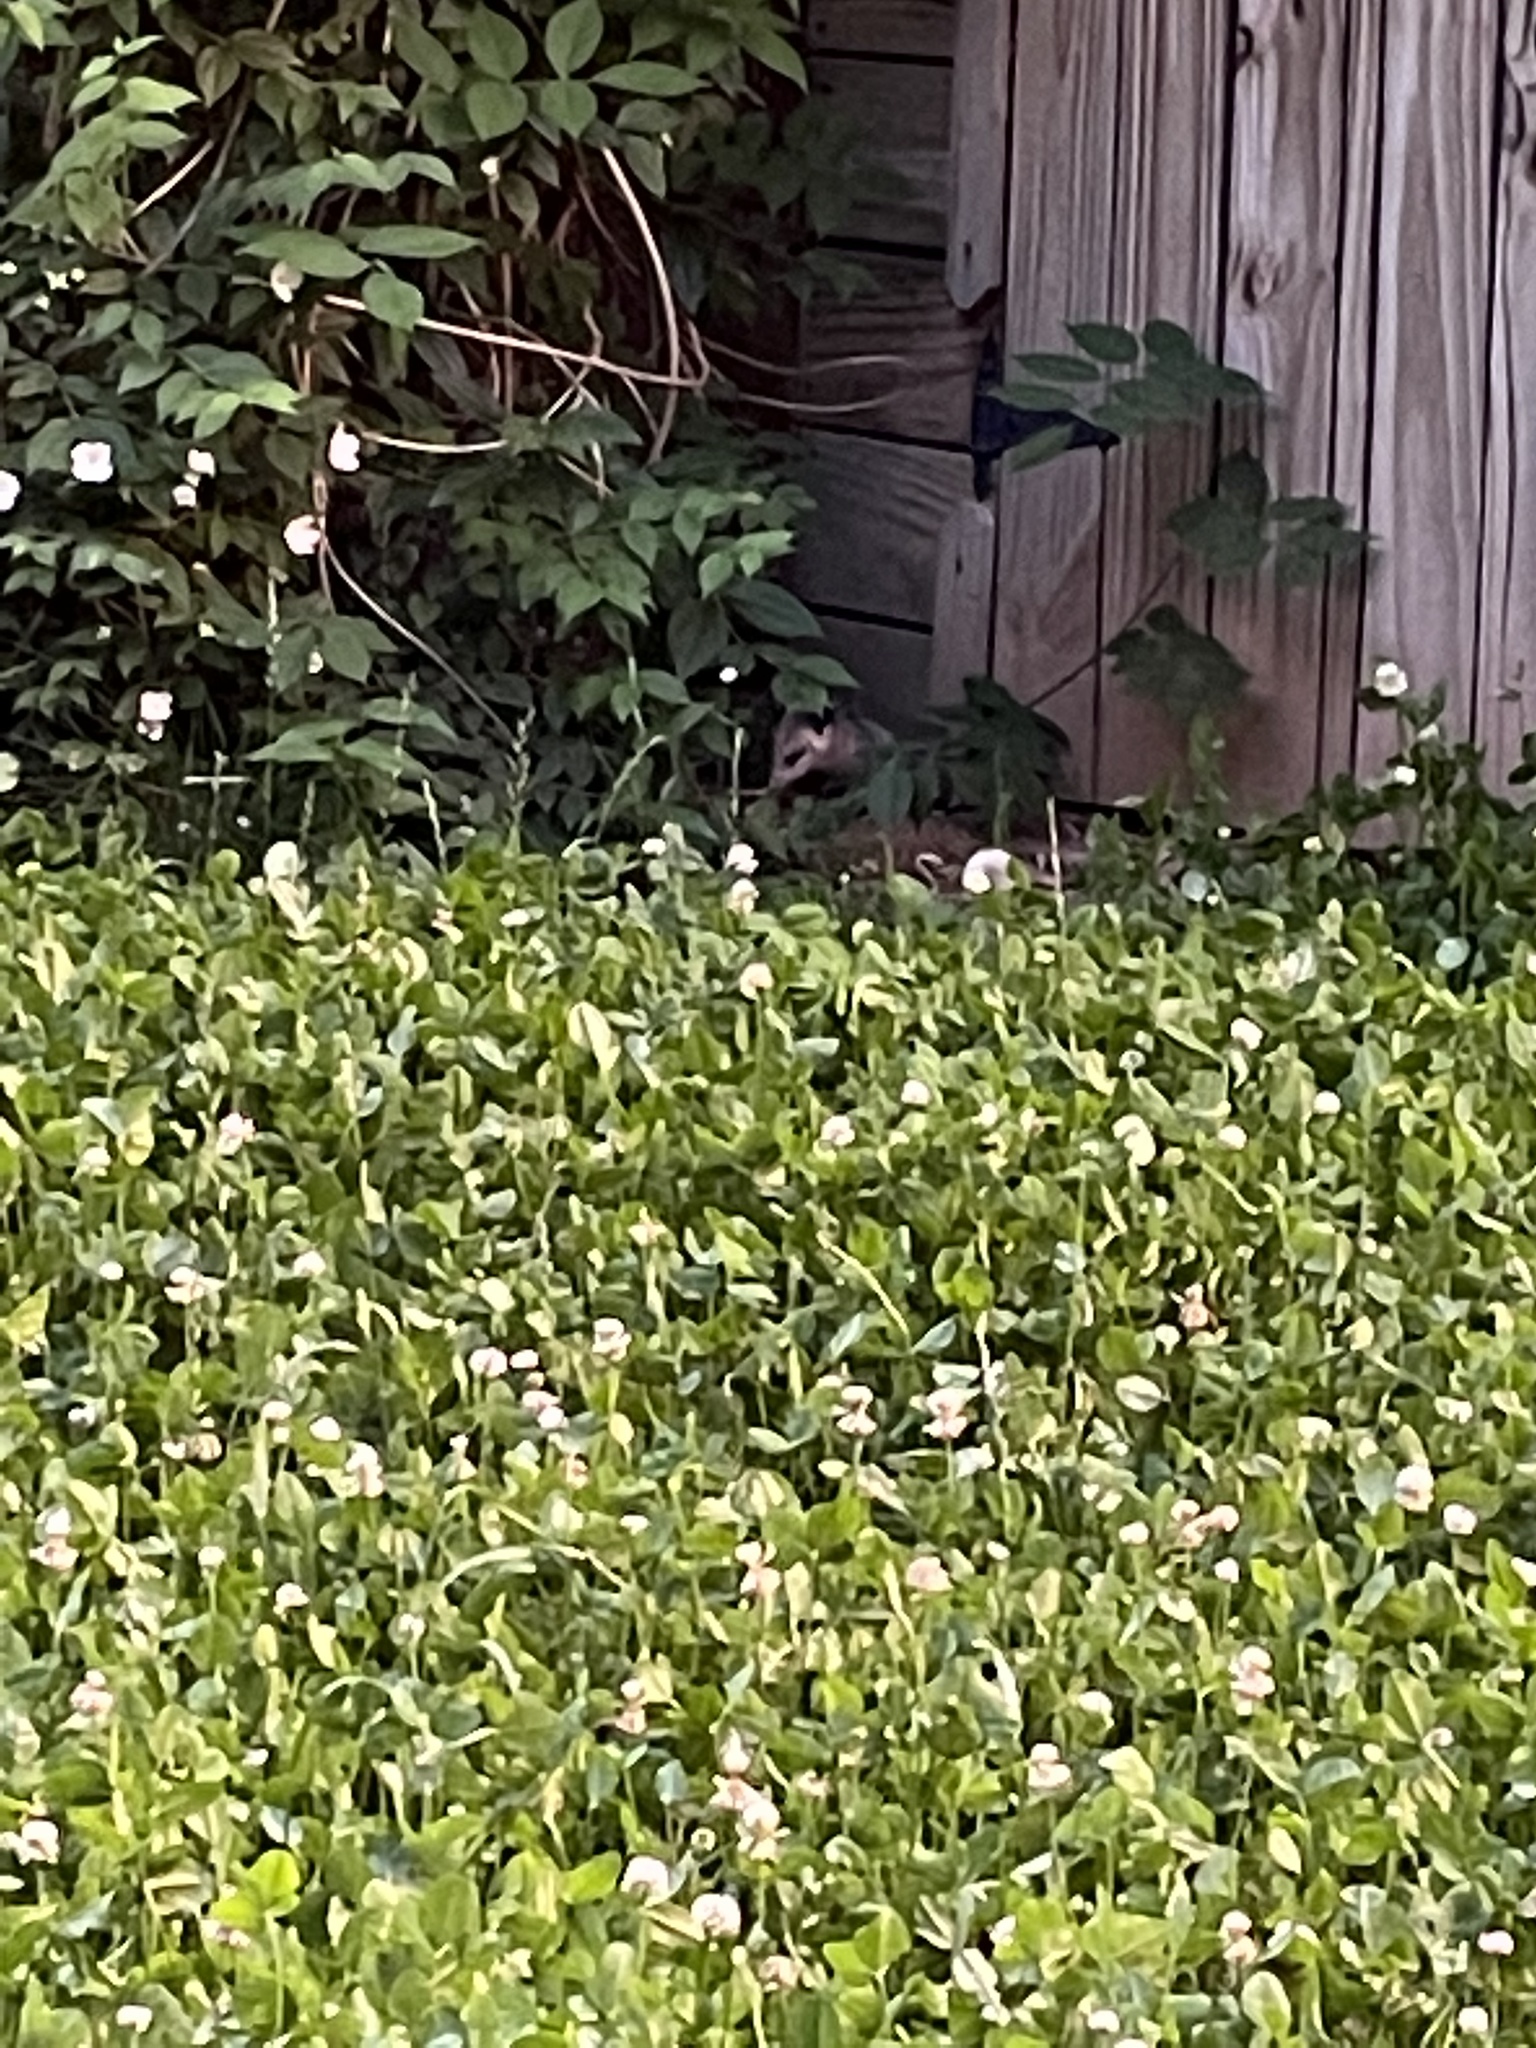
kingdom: Animalia
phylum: Chordata
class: Mammalia
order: Didelphimorphia
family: Didelphidae
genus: Didelphis
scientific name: Didelphis virginiana
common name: Virginia opossum
